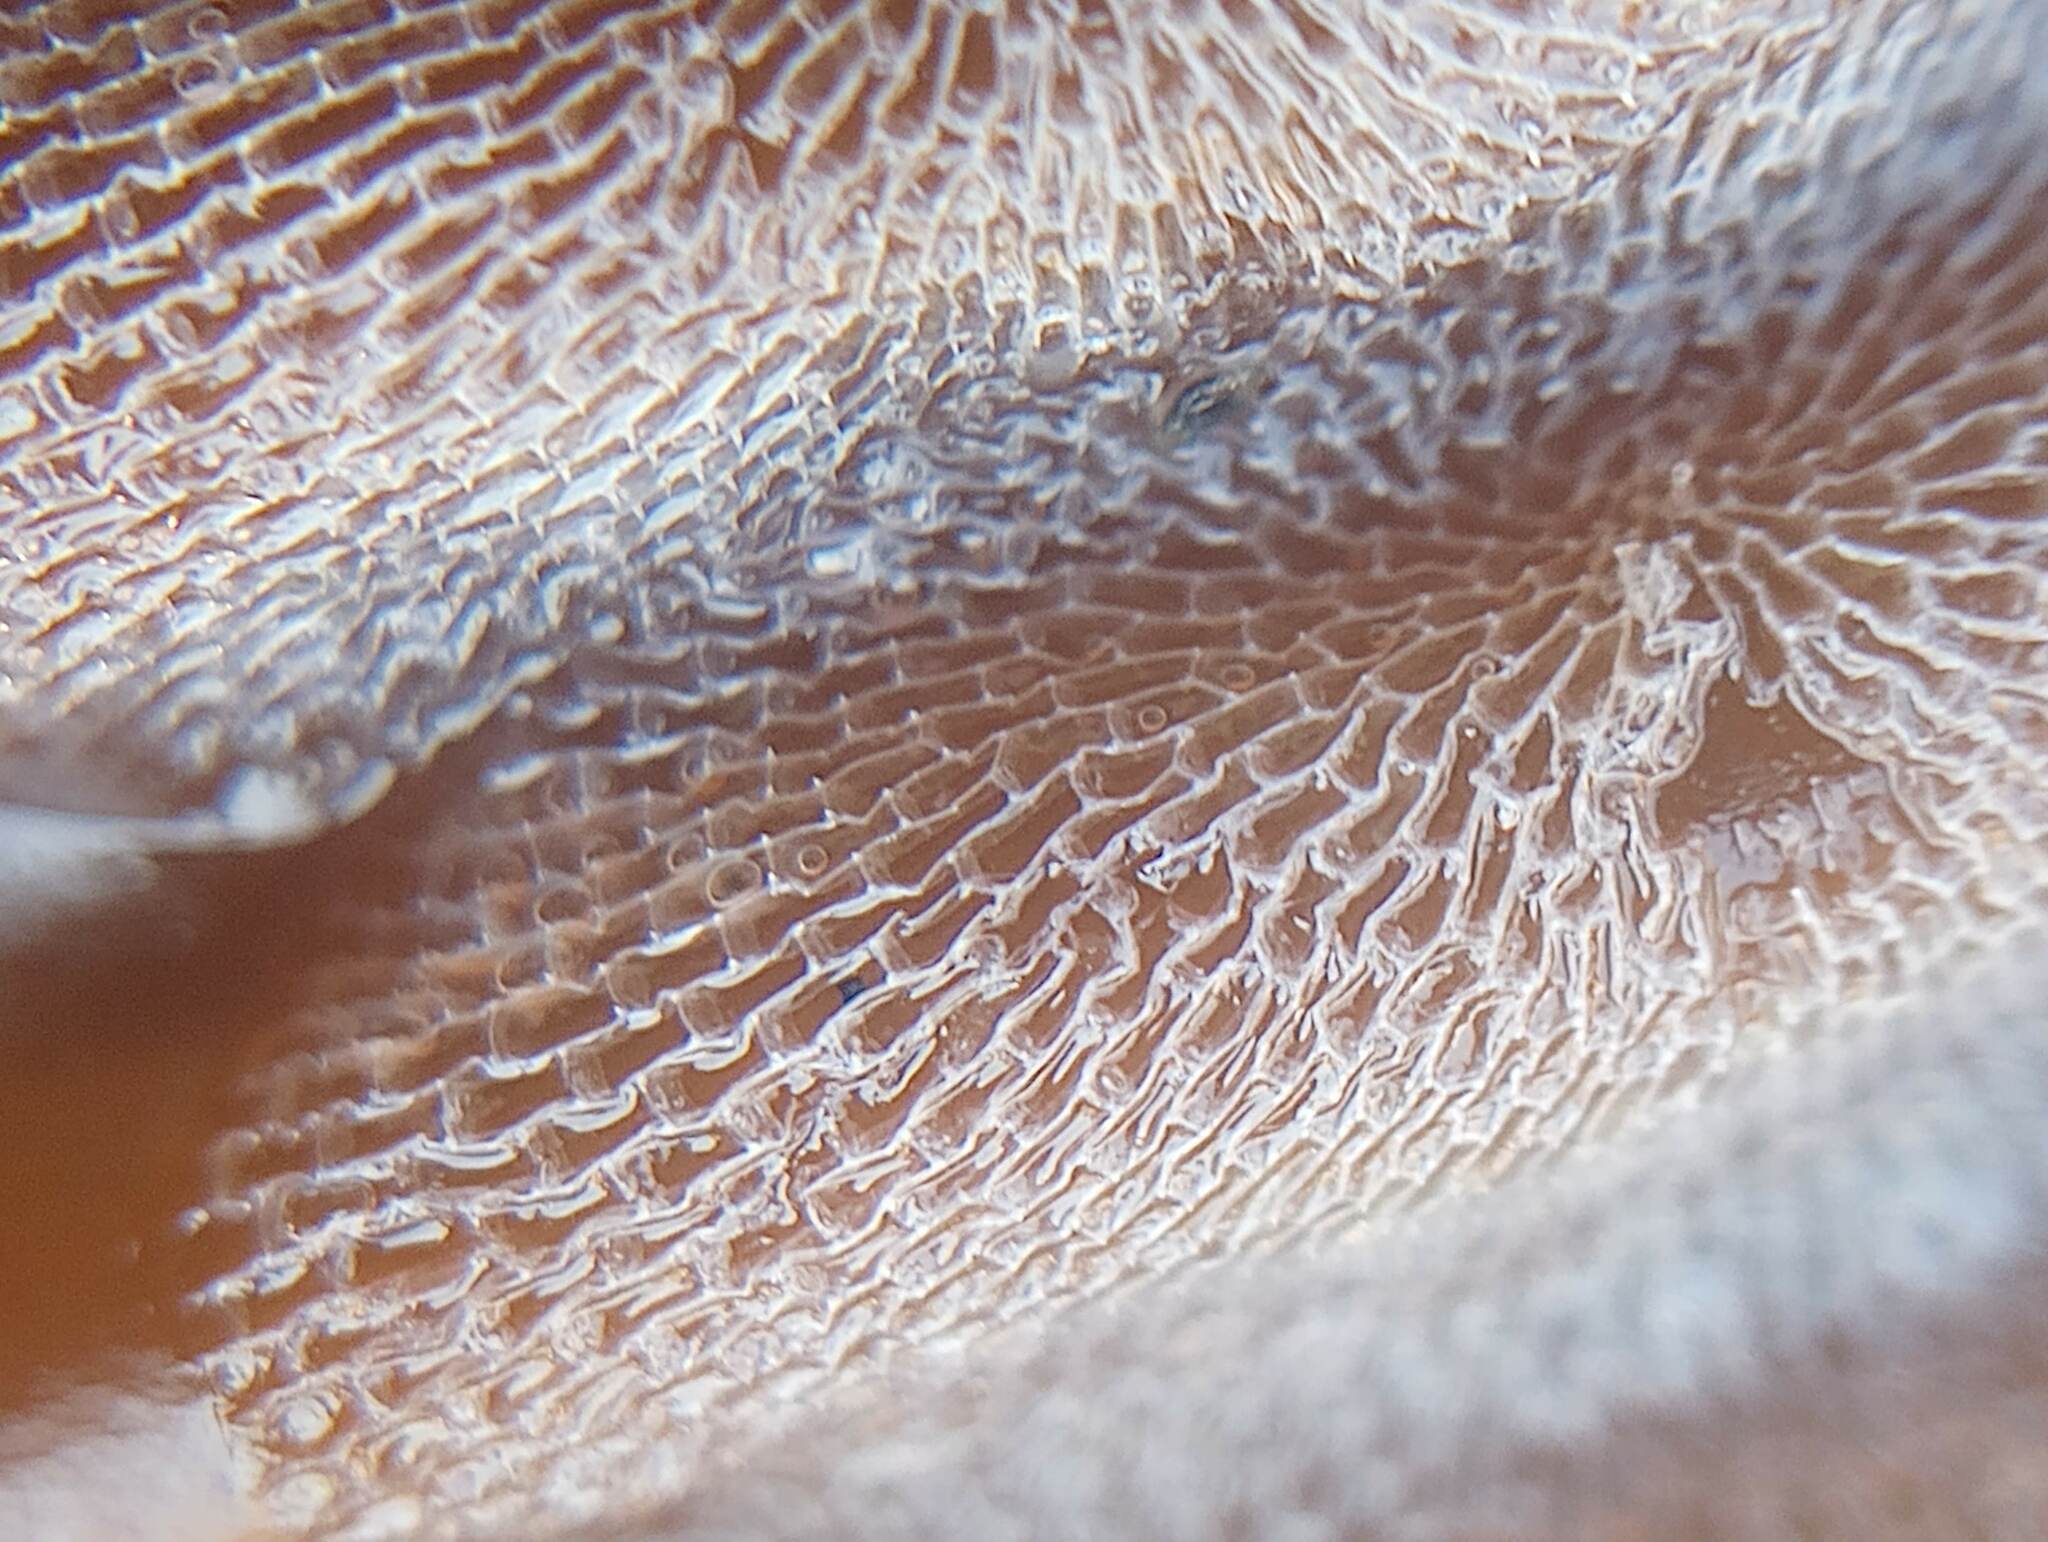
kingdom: Animalia
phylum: Bryozoa
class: Gymnolaemata
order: Cheilostomatida
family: Membraniporidae
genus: Membranipora
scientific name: Membranipora membranacea
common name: Sea mat
